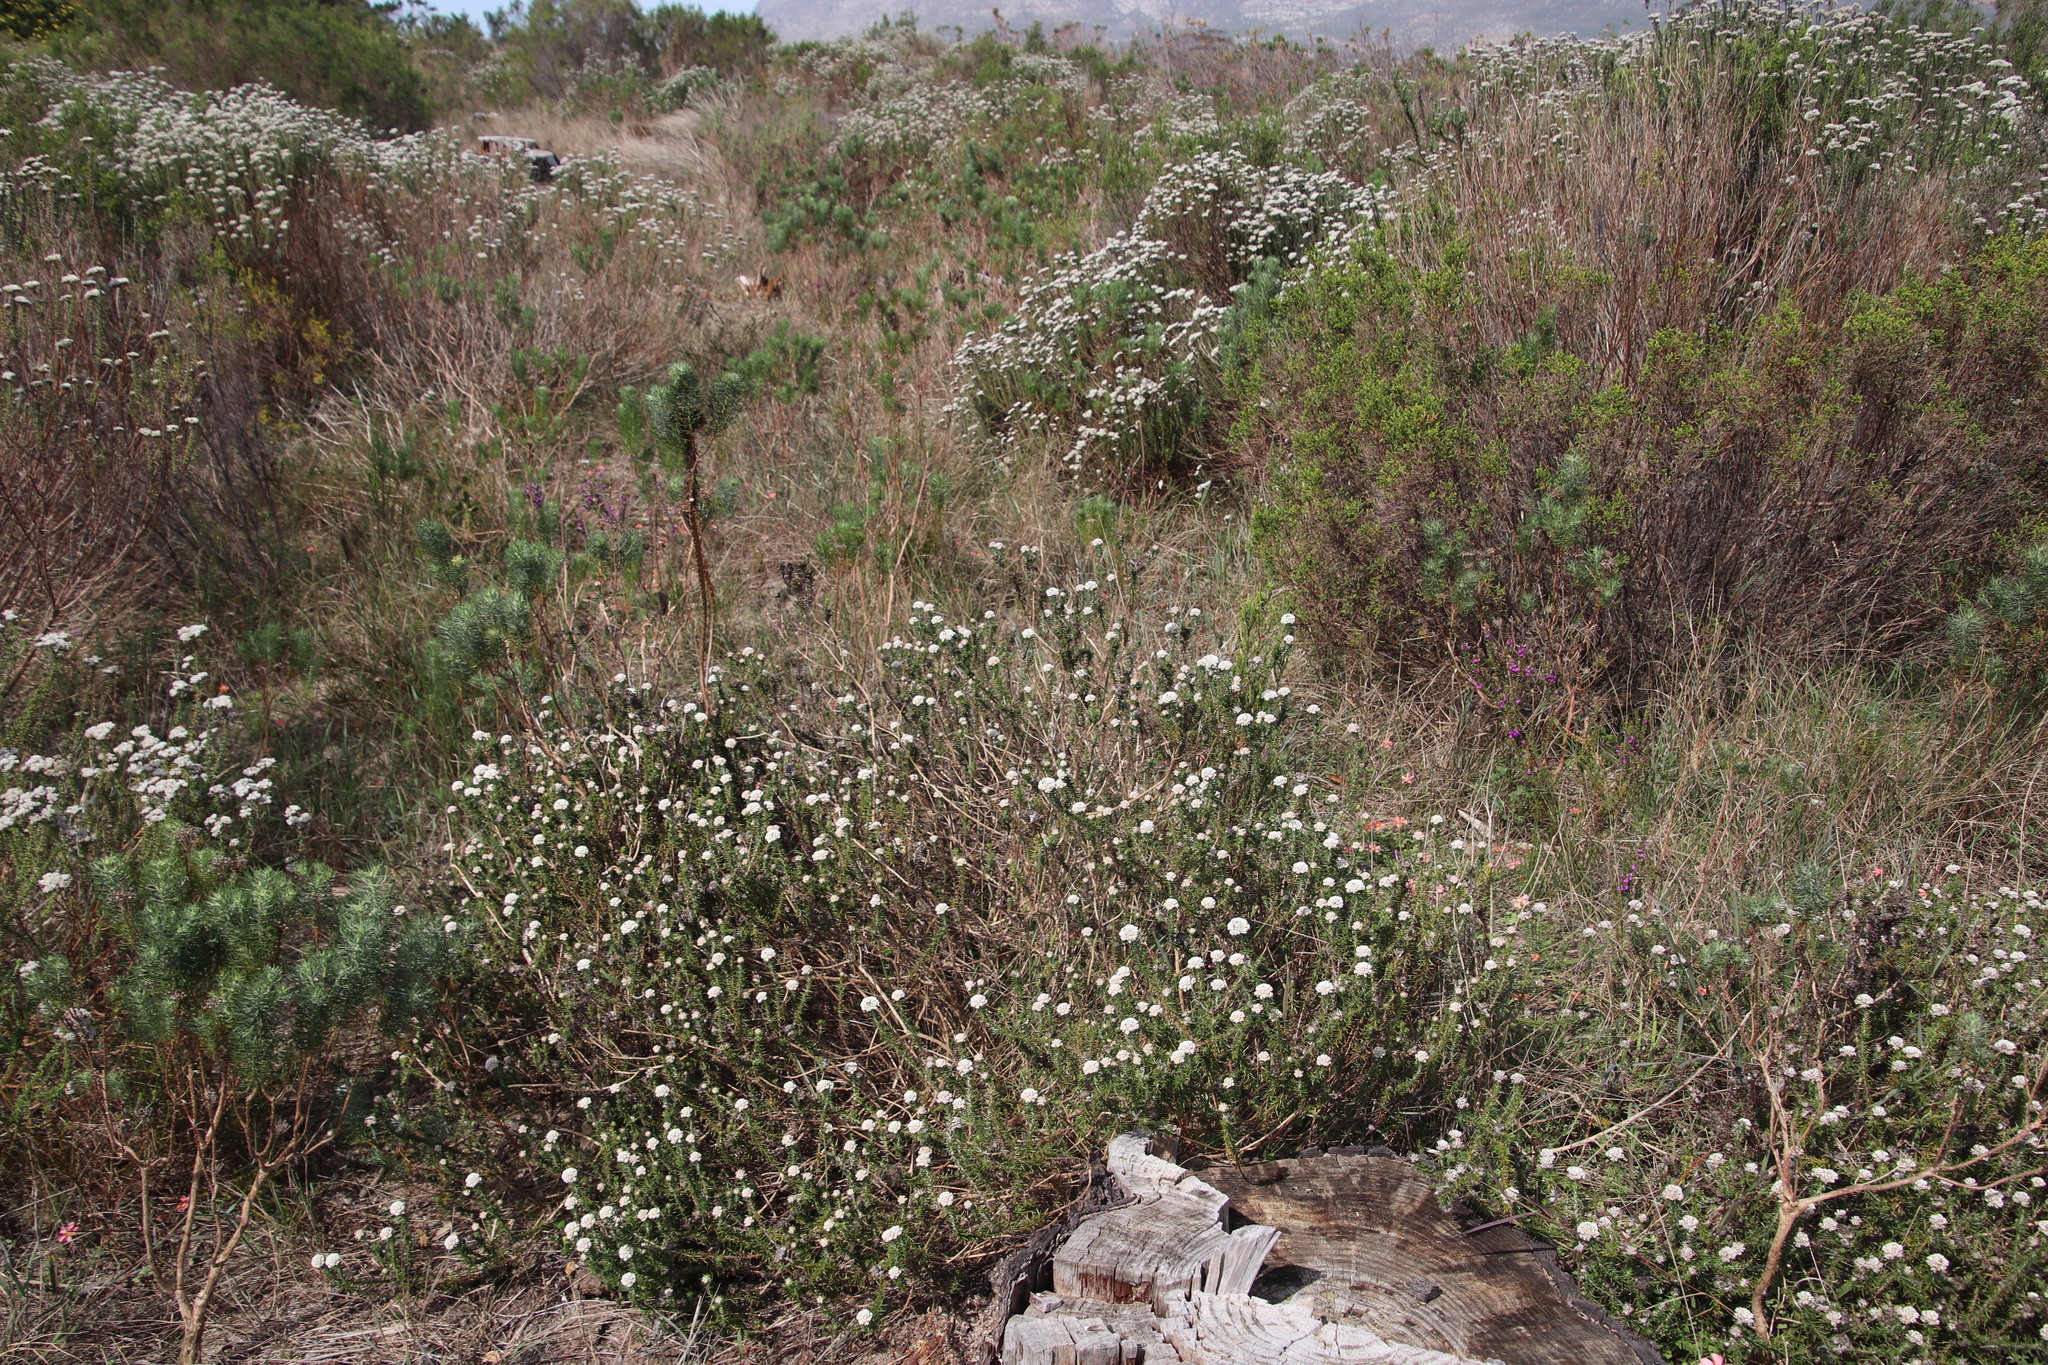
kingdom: Plantae
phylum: Tracheophyta
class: Magnoliopsida
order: Asterales
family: Asteraceae
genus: Metalasia
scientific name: Metalasia pulchella
